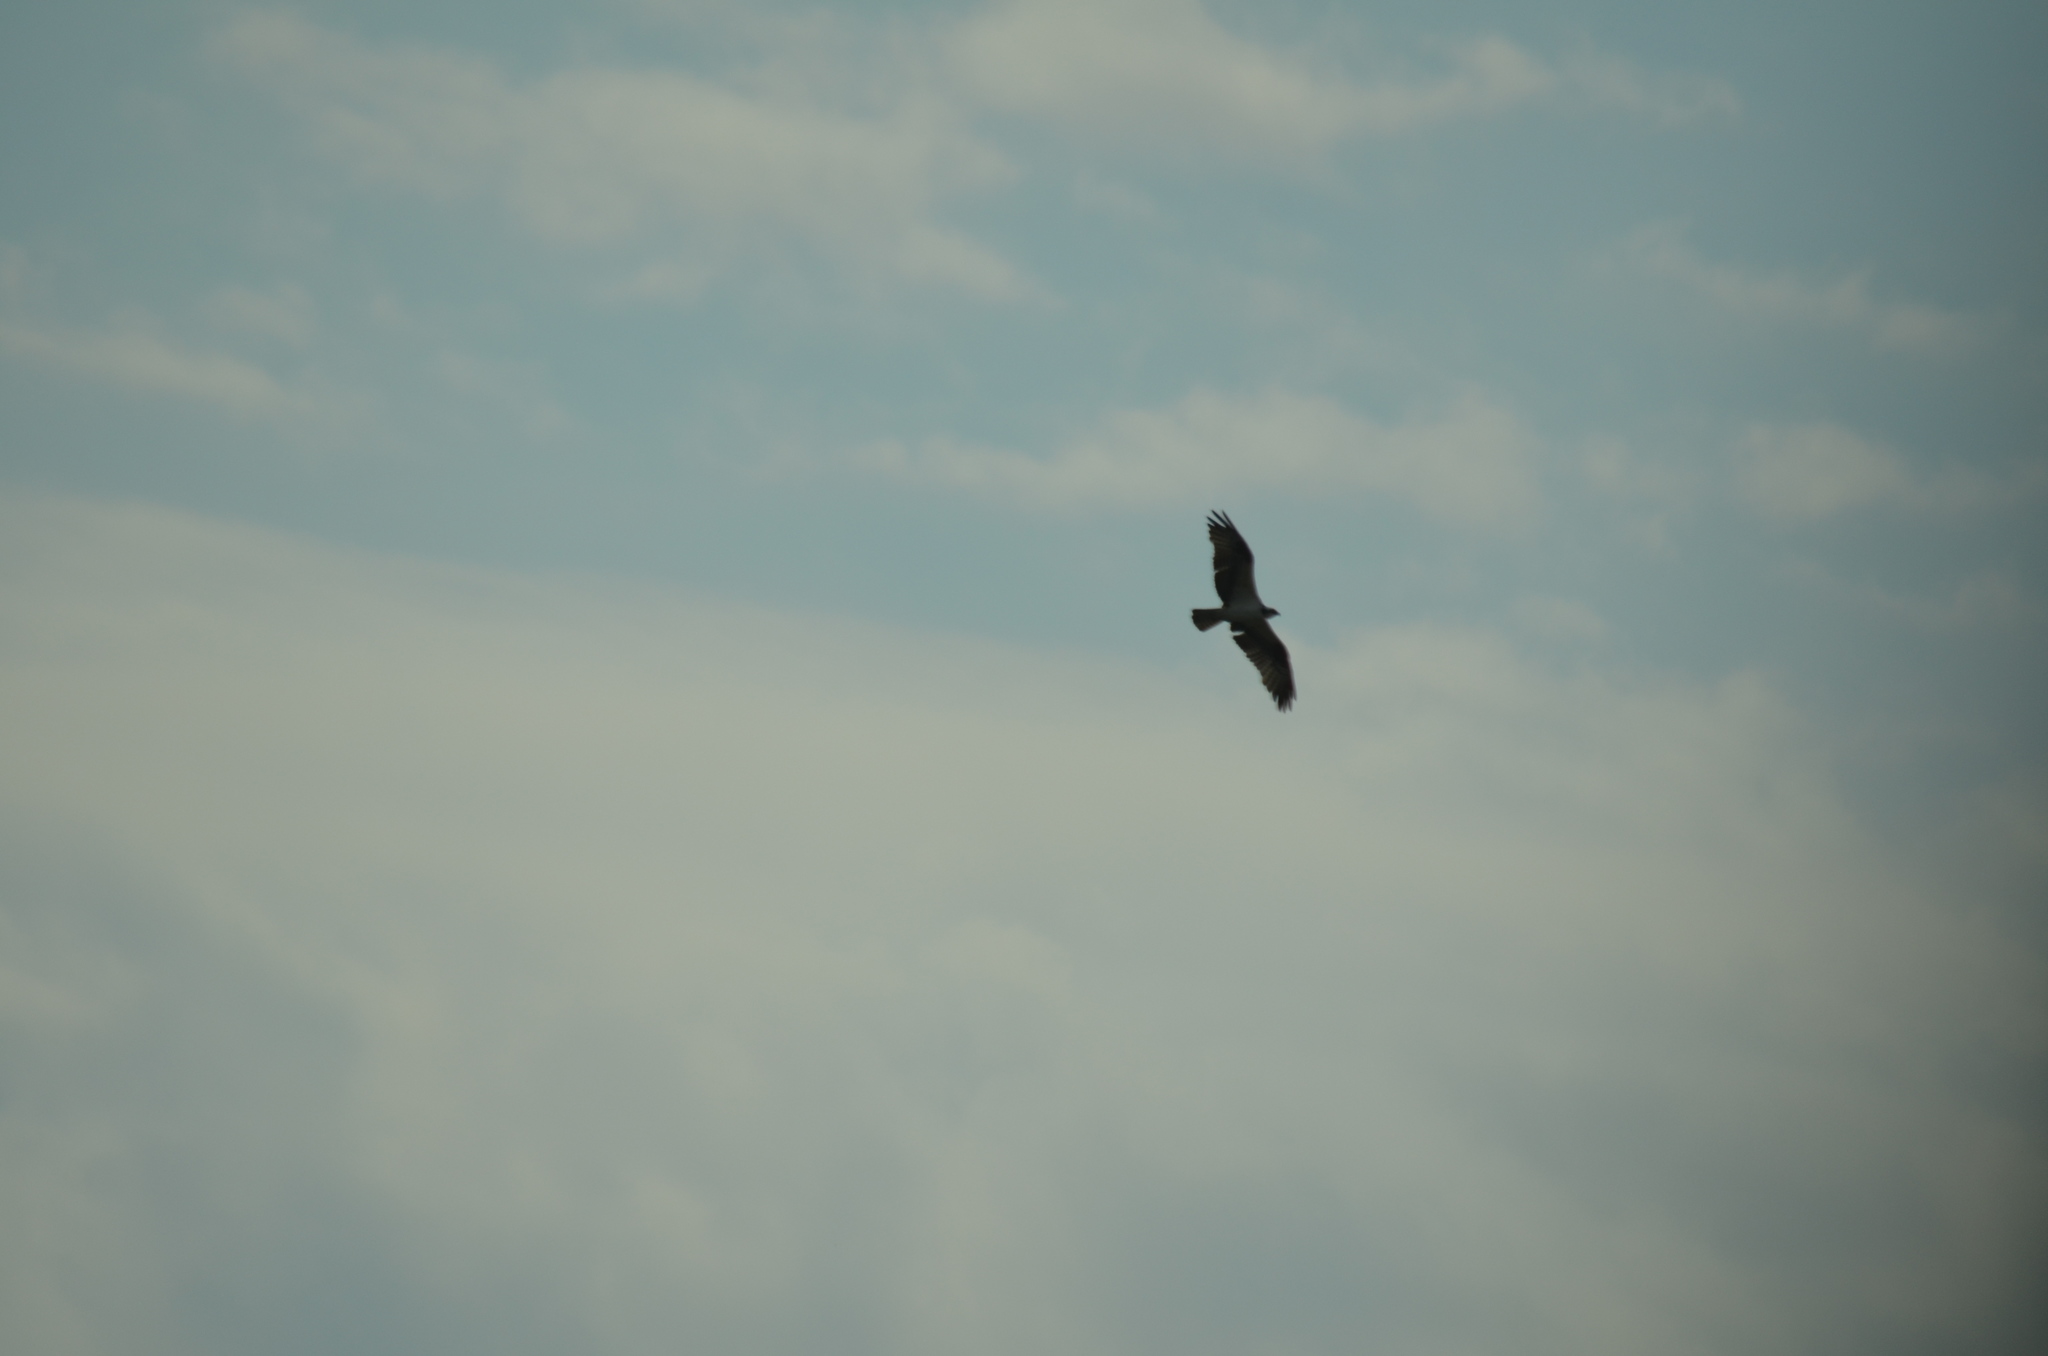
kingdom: Animalia
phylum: Chordata
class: Aves
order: Accipitriformes
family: Pandionidae
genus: Pandion
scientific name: Pandion haliaetus
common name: Osprey
